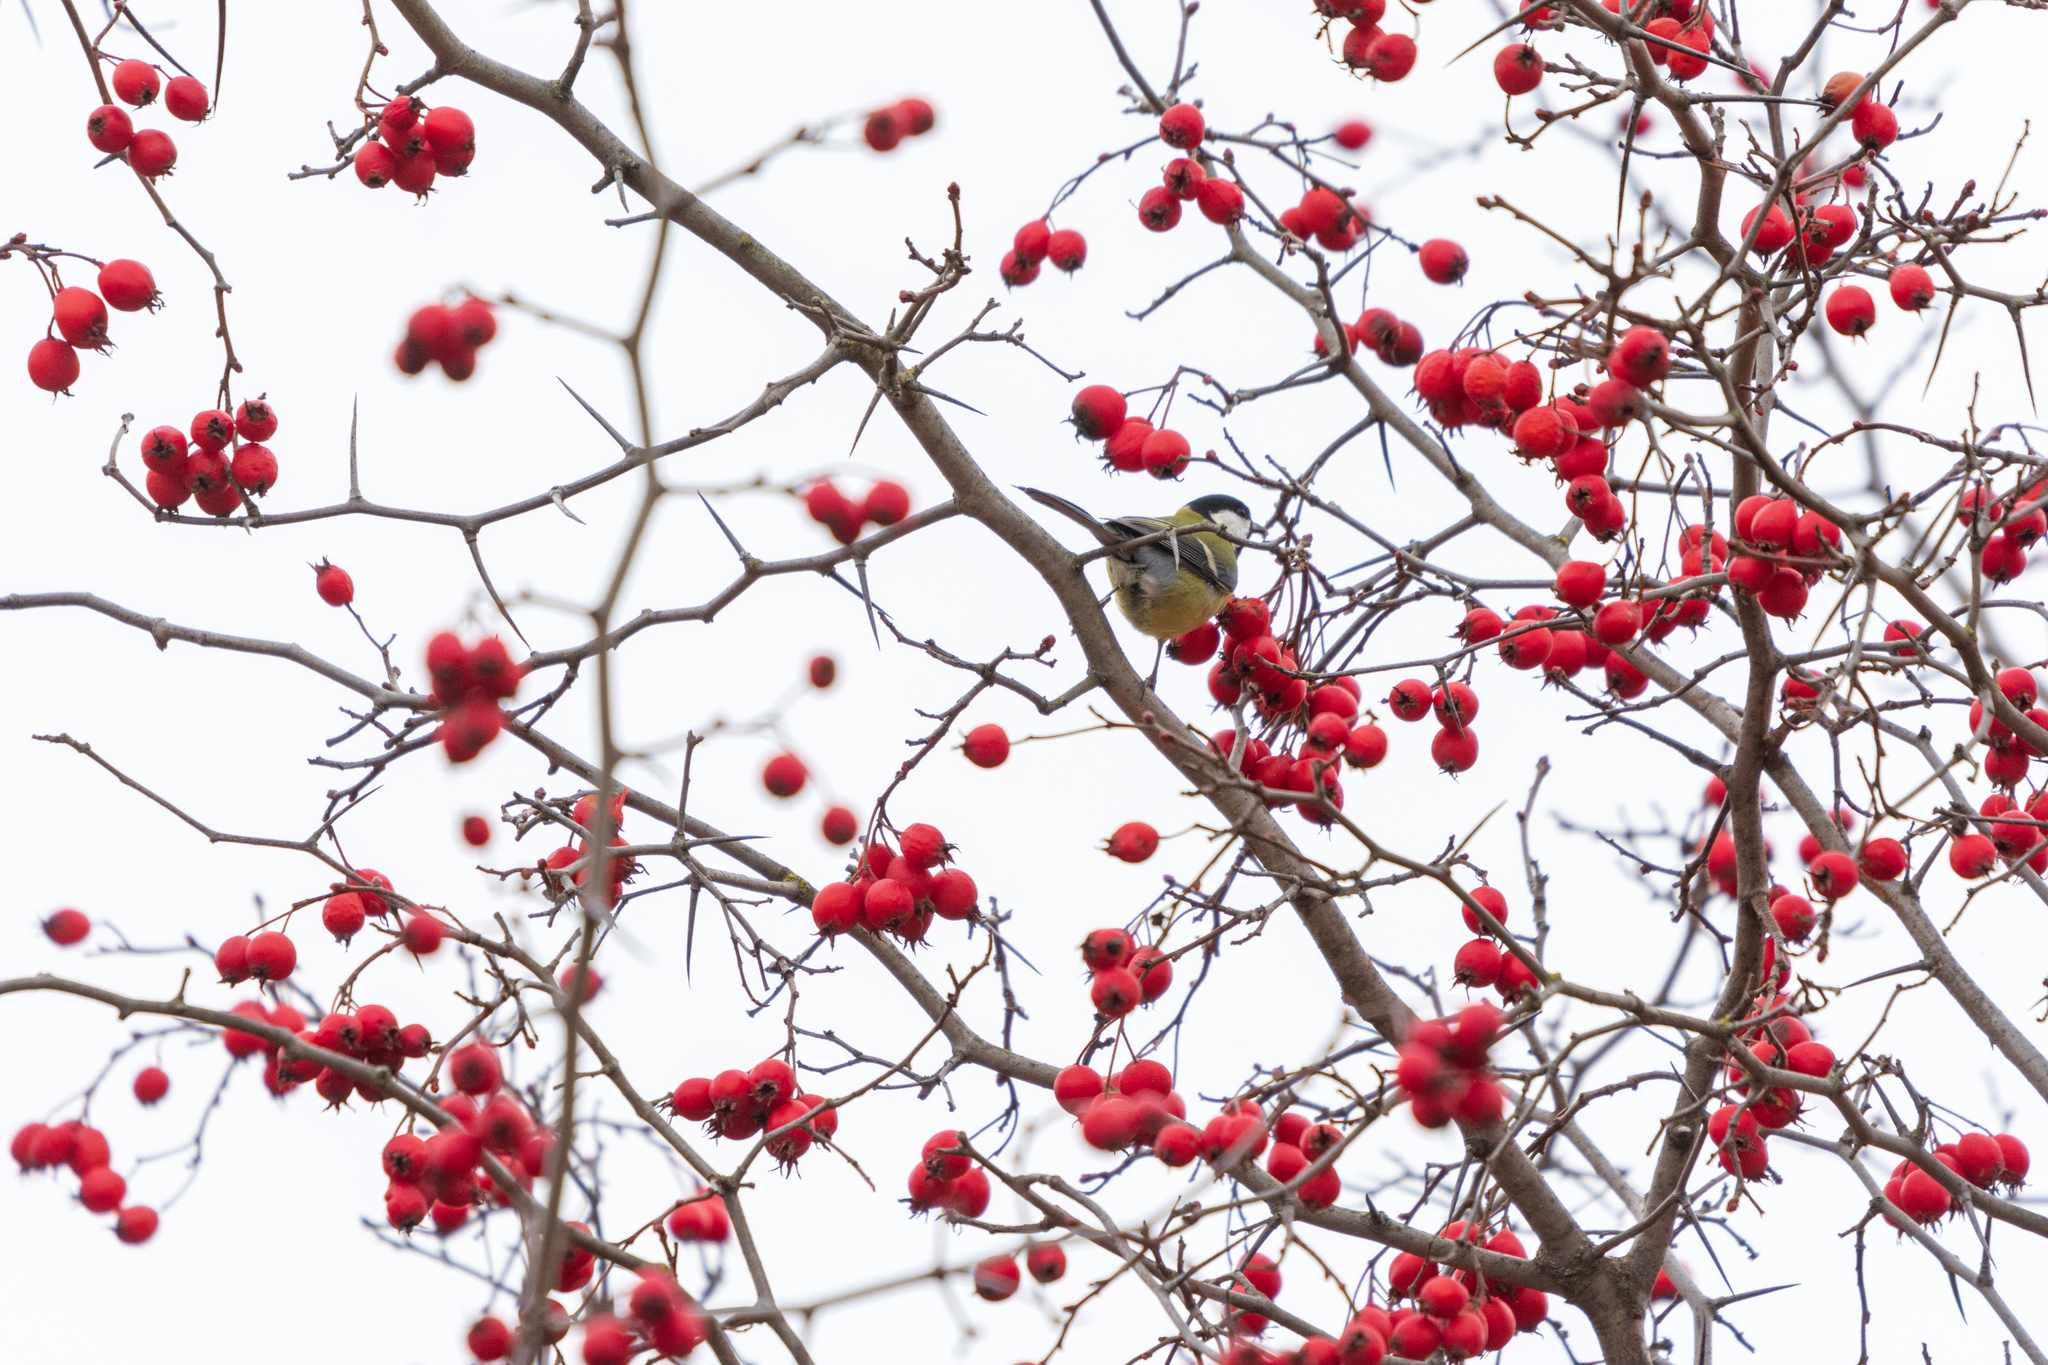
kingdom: Animalia
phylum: Chordata
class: Aves
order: Passeriformes
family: Paridae
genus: Parus
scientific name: Parus major
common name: Great tit
